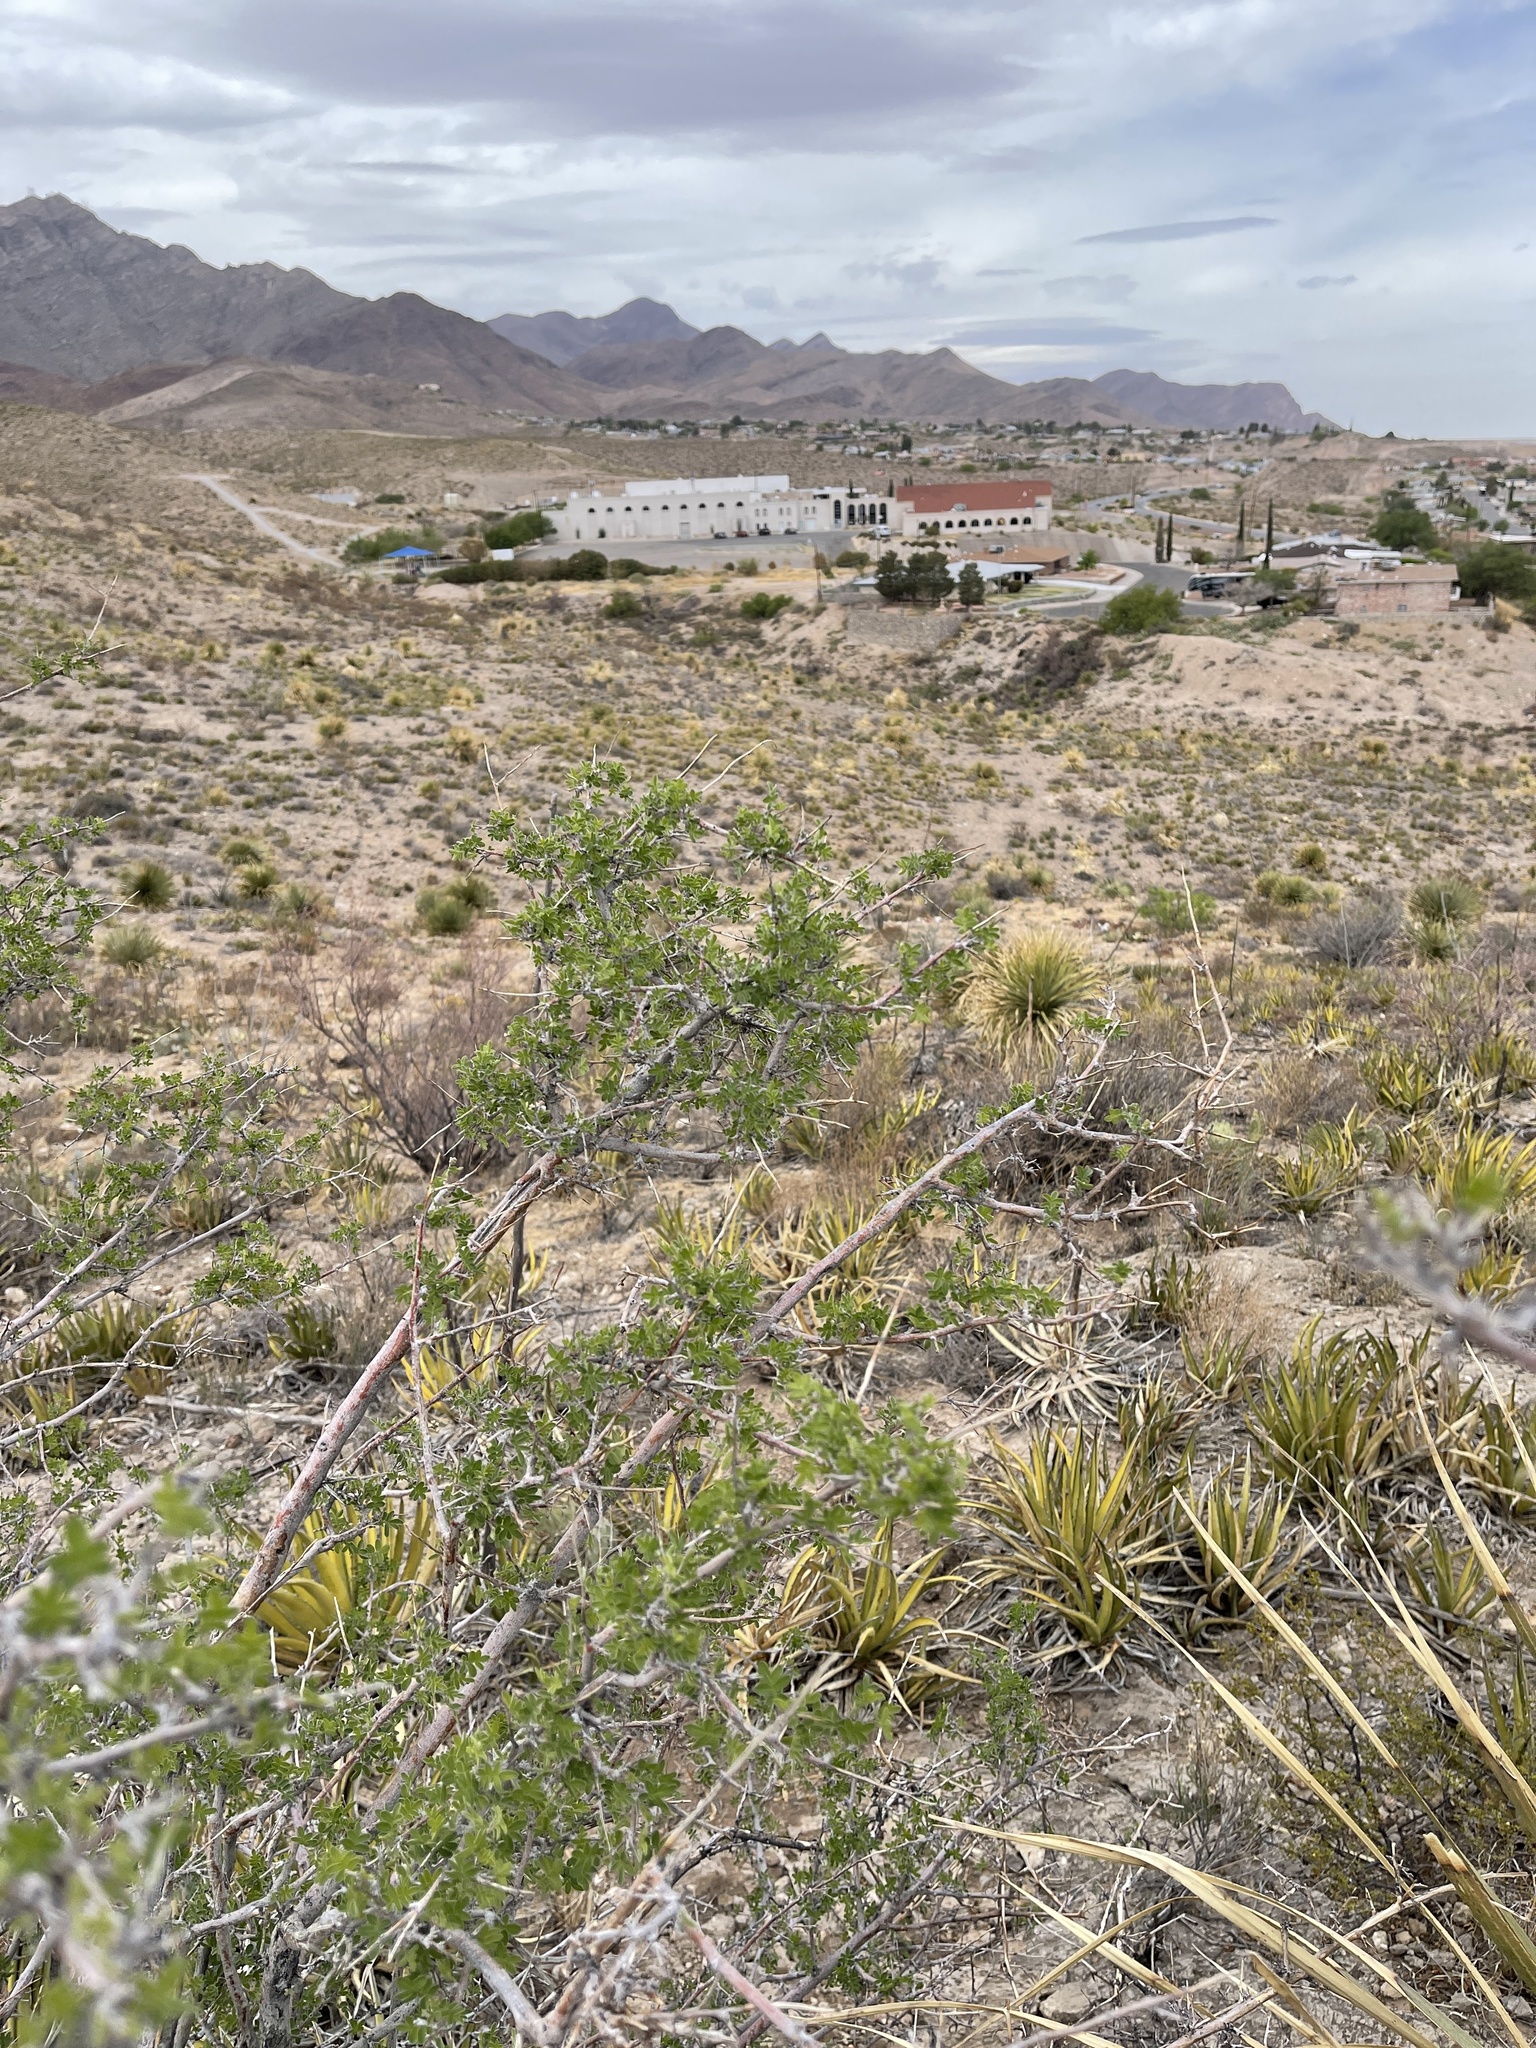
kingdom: Plantae
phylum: Tracheophyta
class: Magnoliopsida
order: Sapindales
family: Anacardiaceae
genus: Rhus
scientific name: Rhus microphylla
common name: Desert sumac
